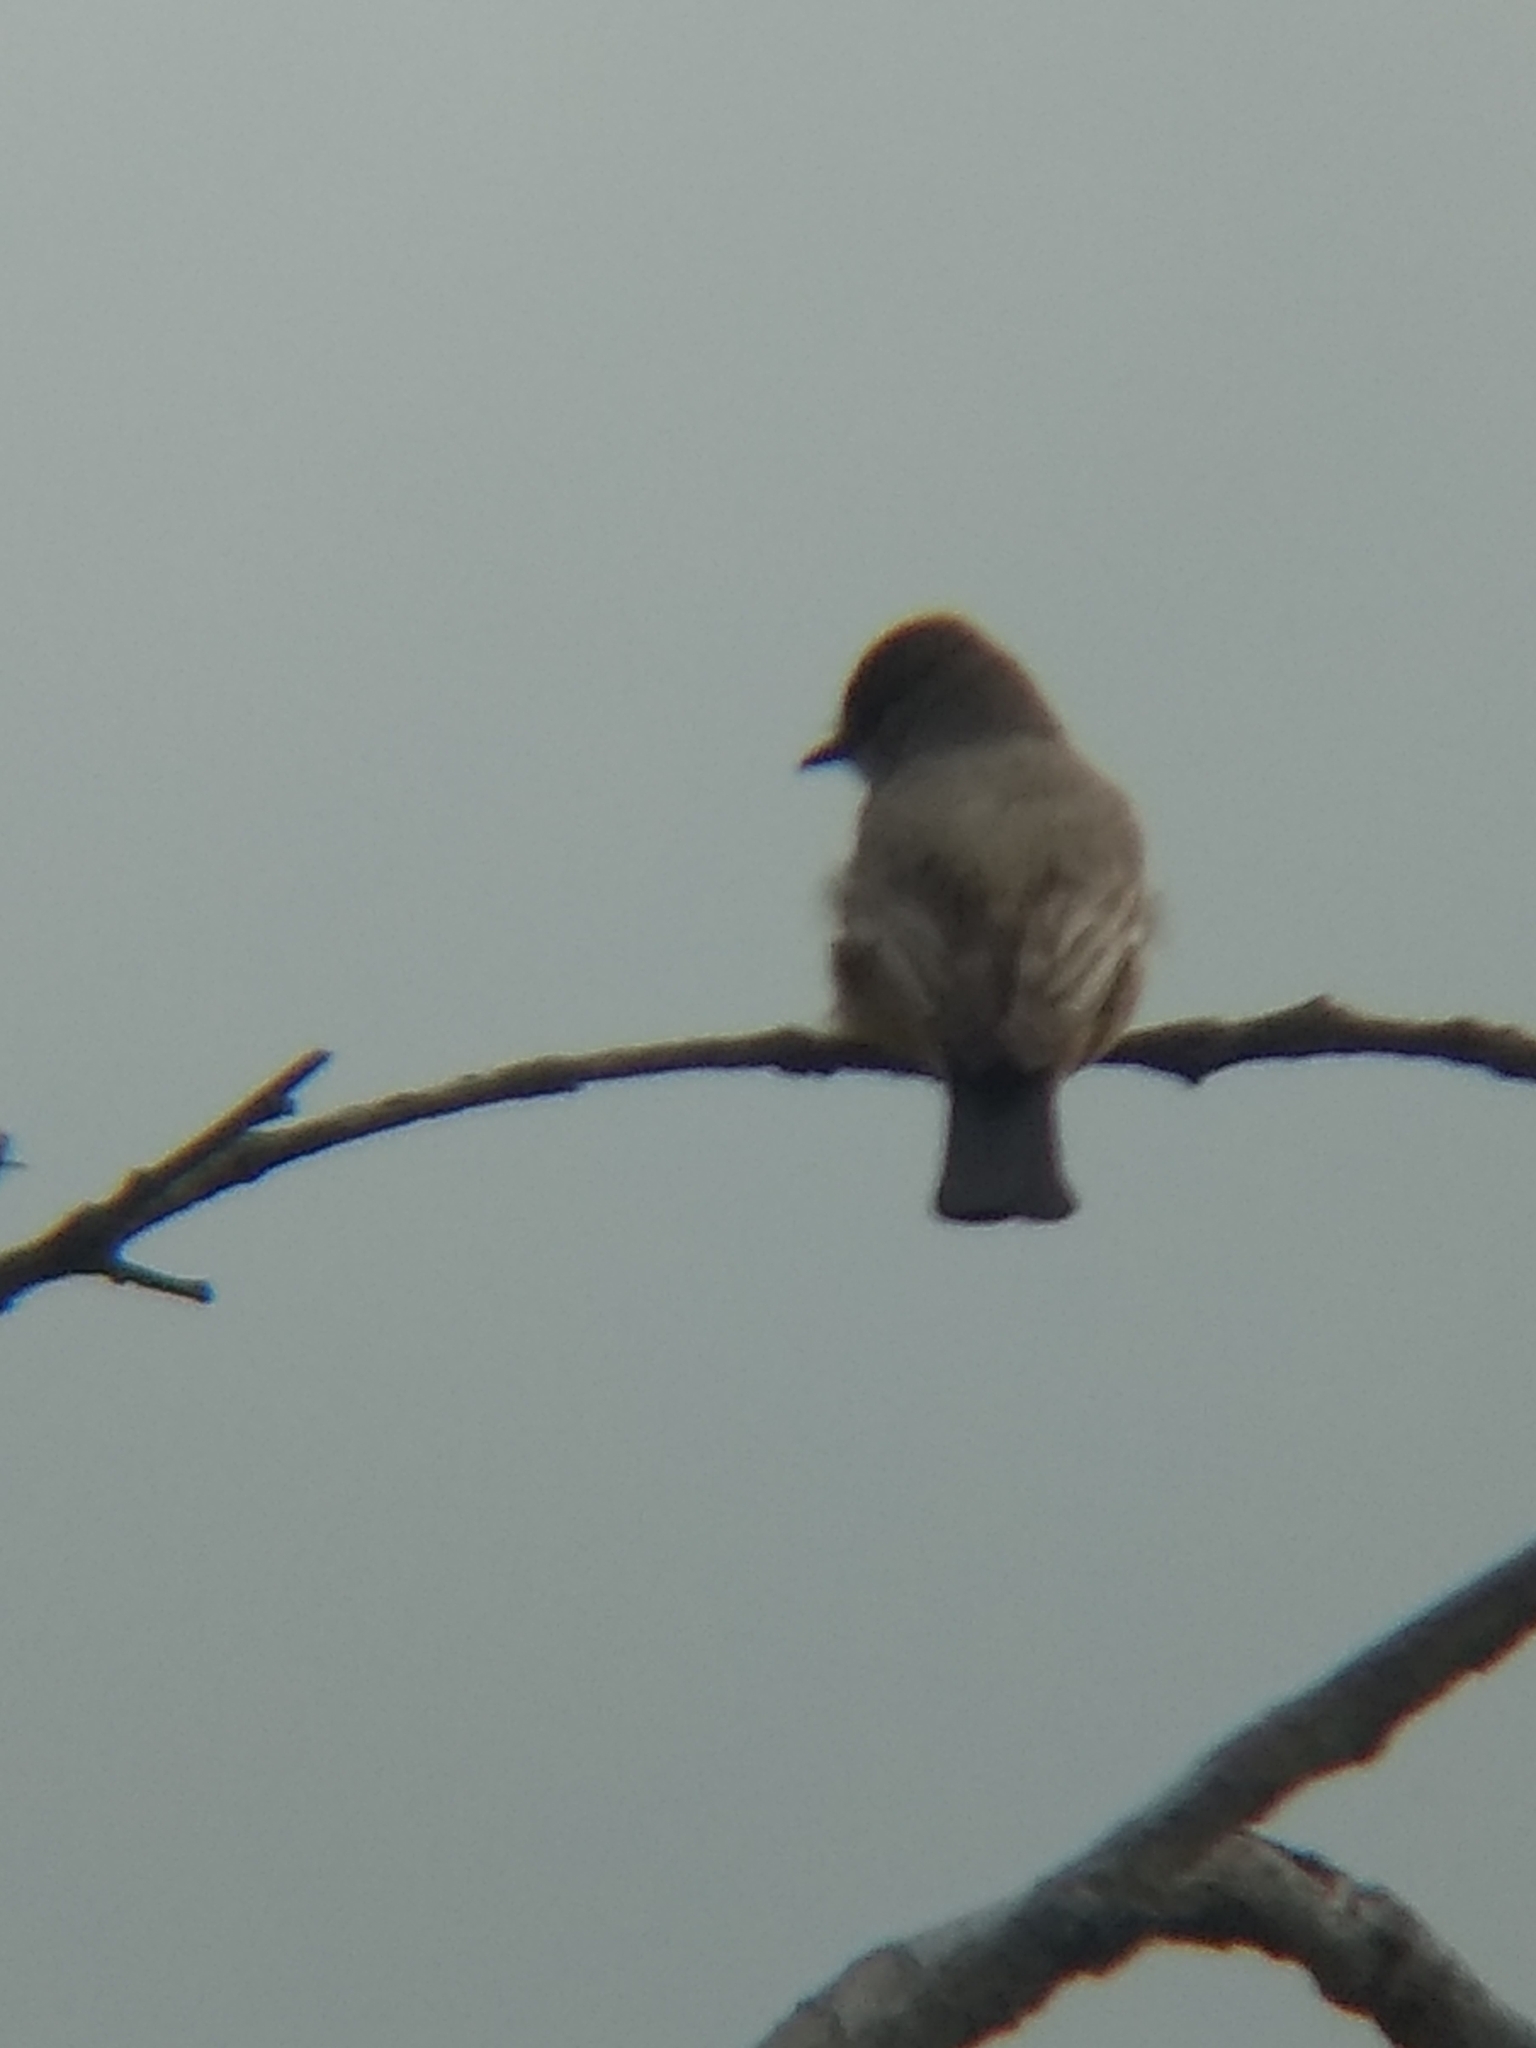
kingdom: Animalia
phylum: Chordata
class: Aves
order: Passeriformes
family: Tyrannidae
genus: Sayornis
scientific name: Sayornis saya
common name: Say's phoebe
